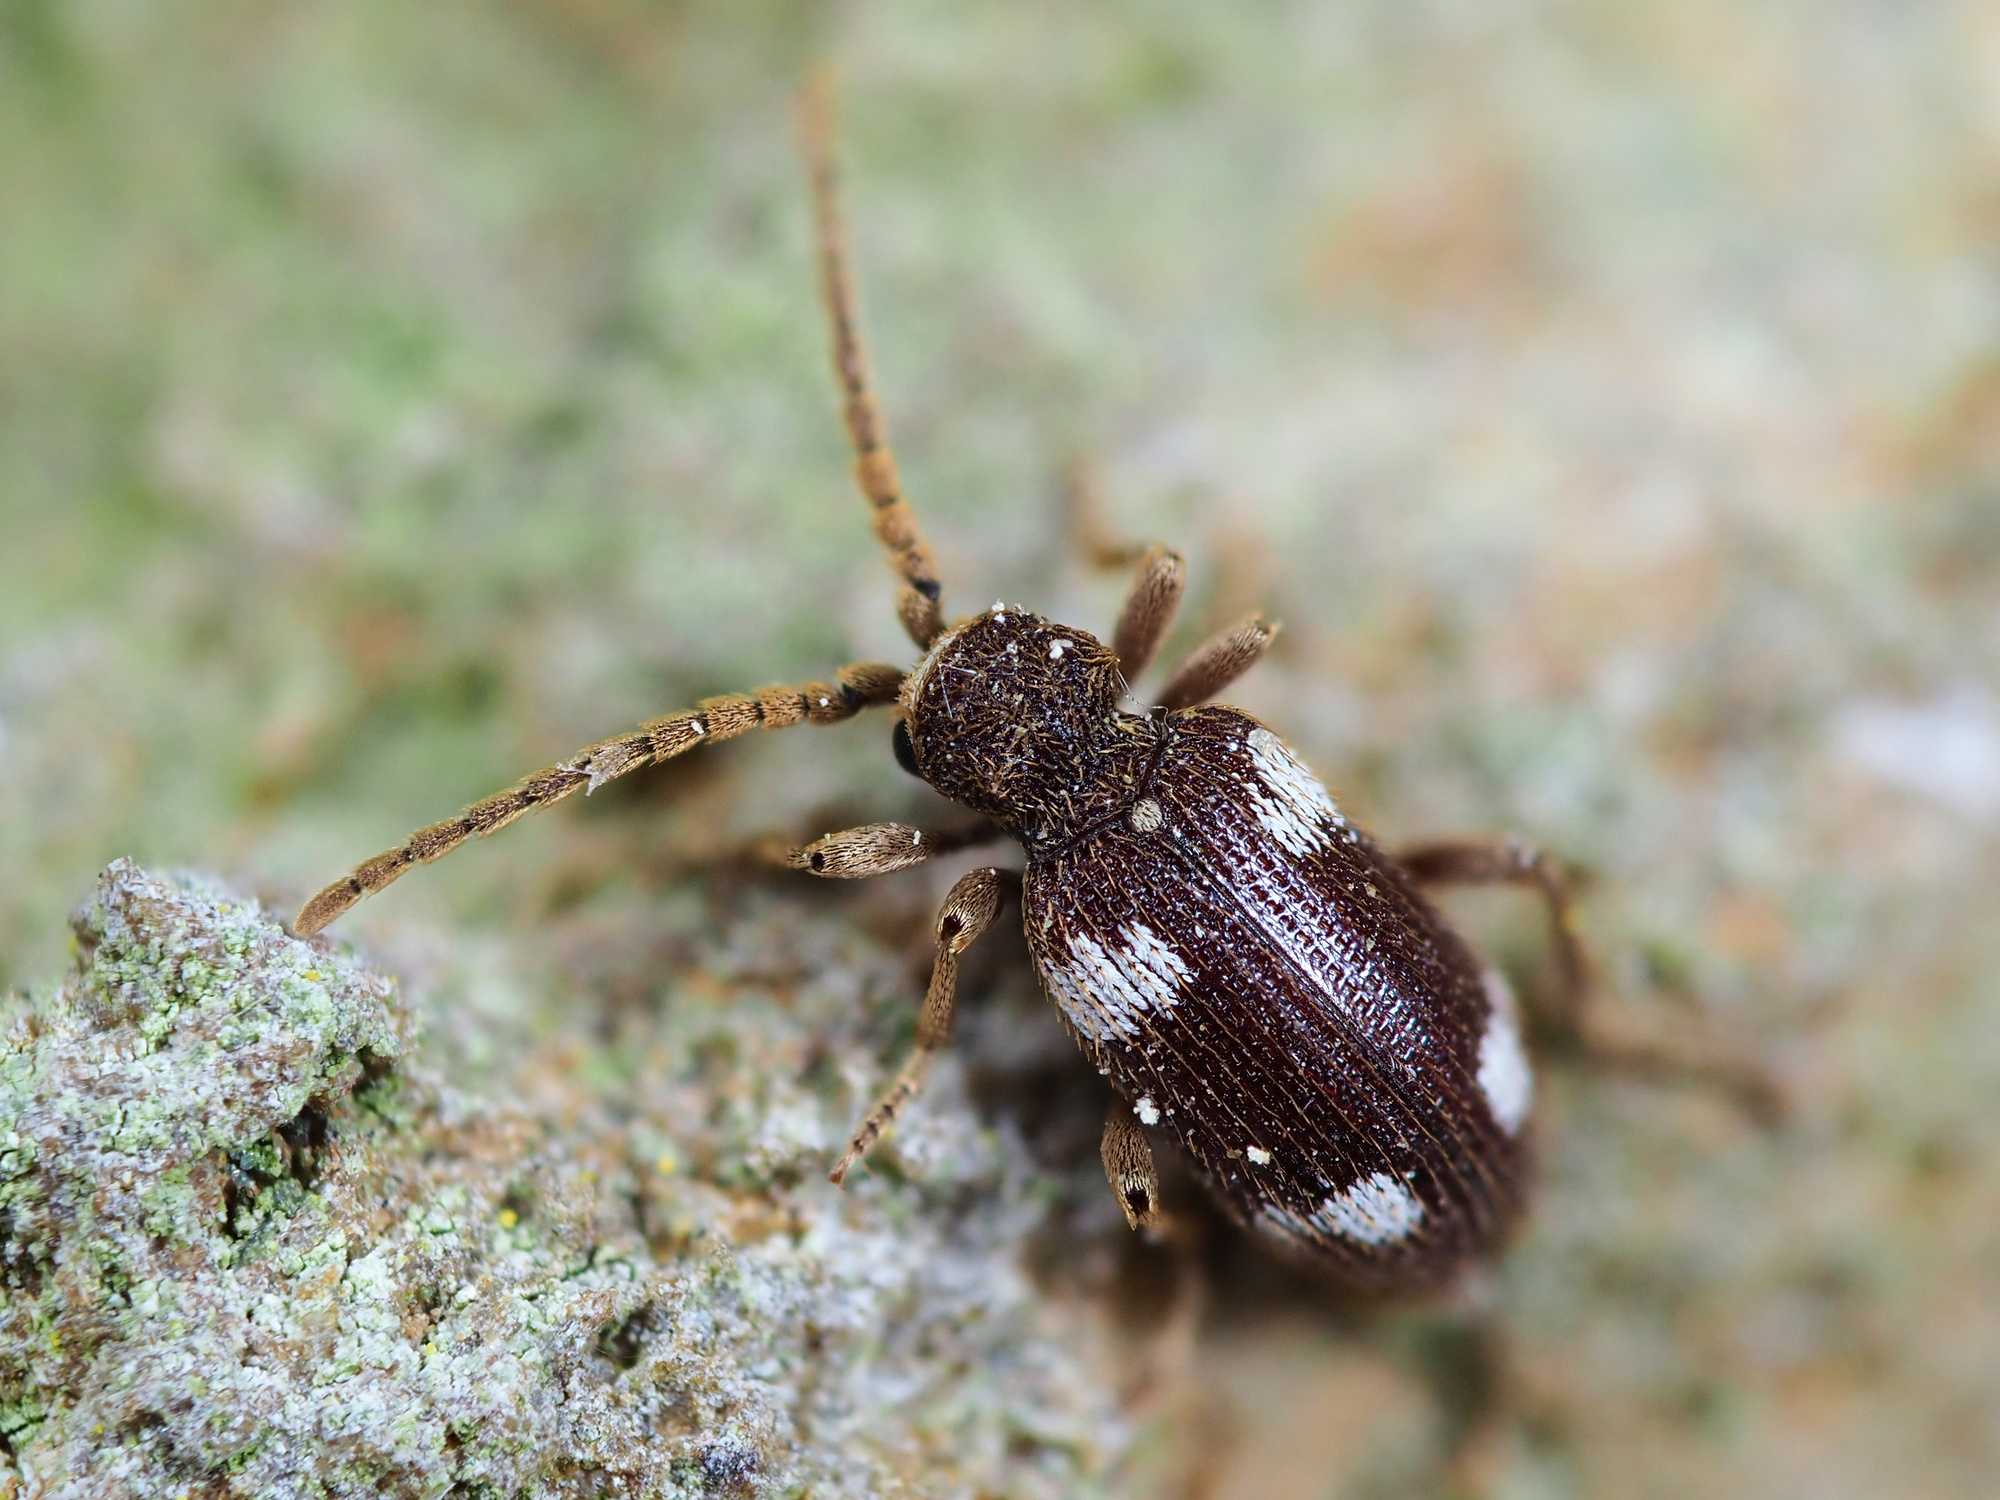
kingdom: Animalia
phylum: Arthropoda
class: Insecta
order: Coleoptera
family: Ptinidae
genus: Ptinus
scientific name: Ptinus sexpunctatus
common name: Six-spotted spider beetle
